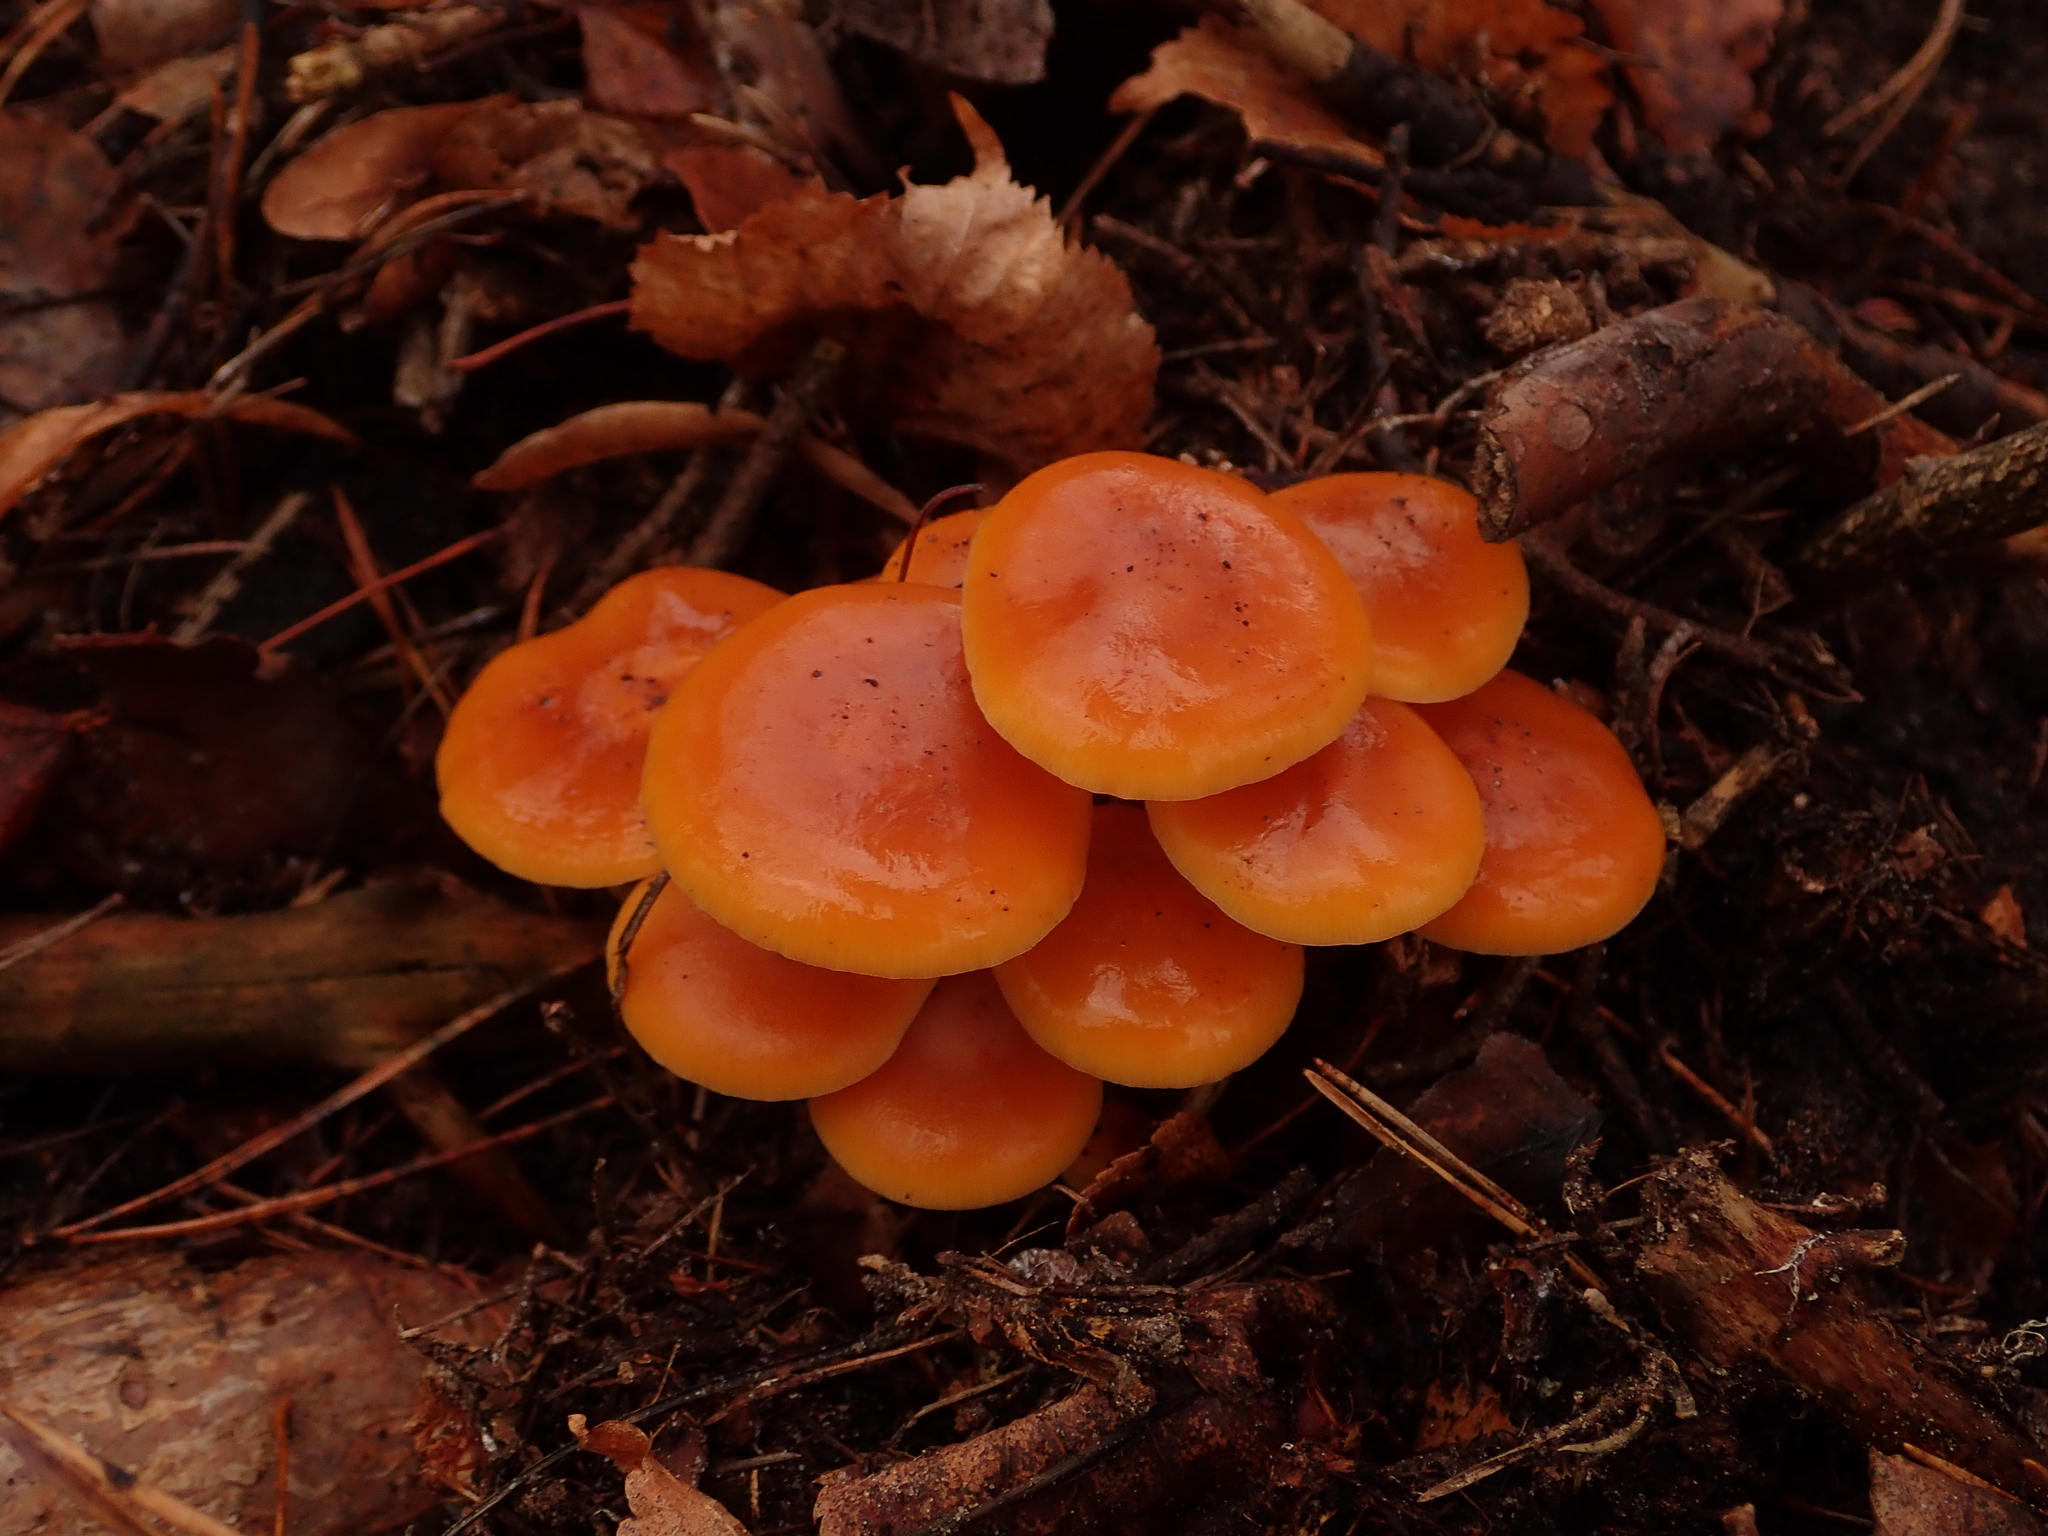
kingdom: Fungi
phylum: Basidiomycota
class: Agaricomycetes
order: Agaricales
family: Physalacriaceae
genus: Flammulina
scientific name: Flammulina
